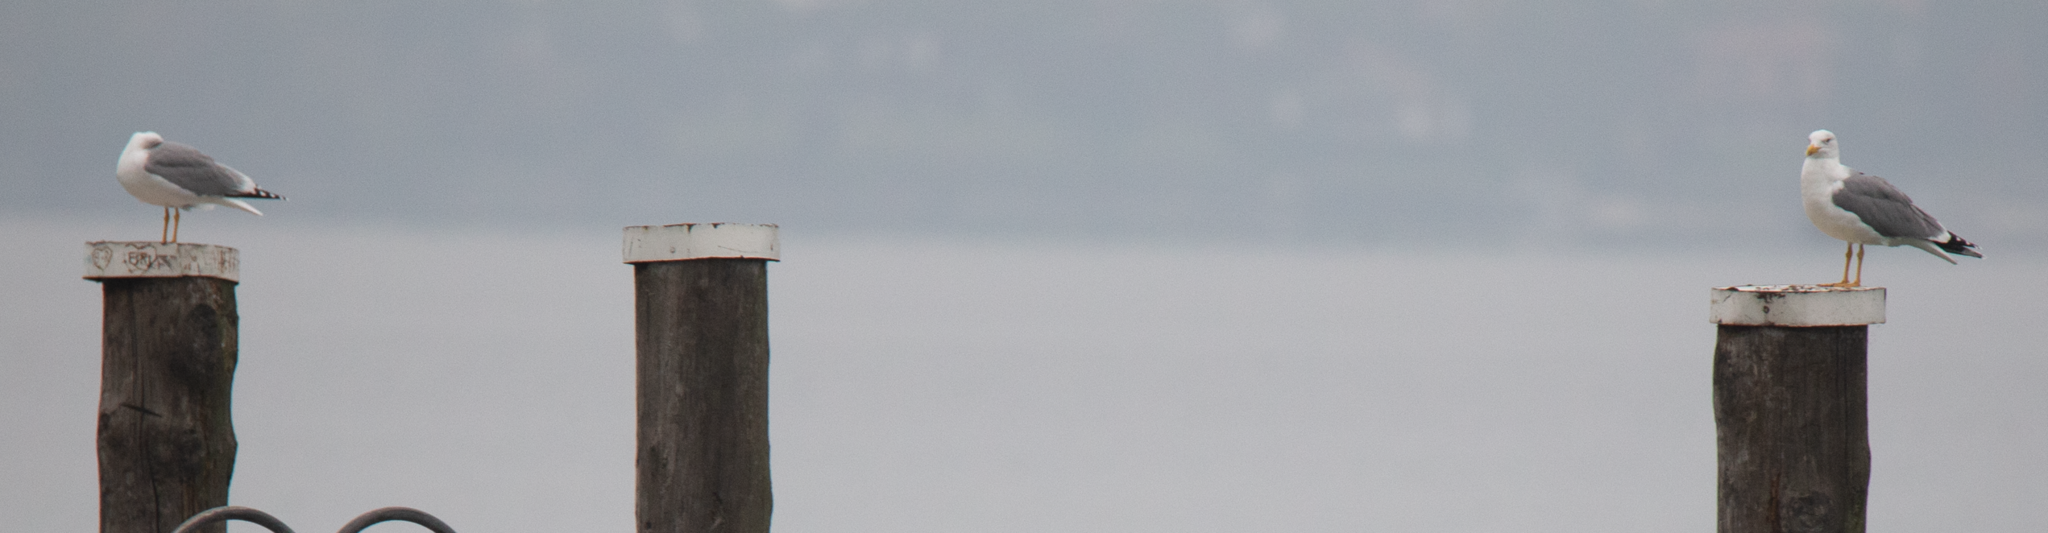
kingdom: Animalia
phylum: Chordata
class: Aves
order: Charadriiformes
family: Laridae
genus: Larus
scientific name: Larus michahellis
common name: Yellow-legged gull
